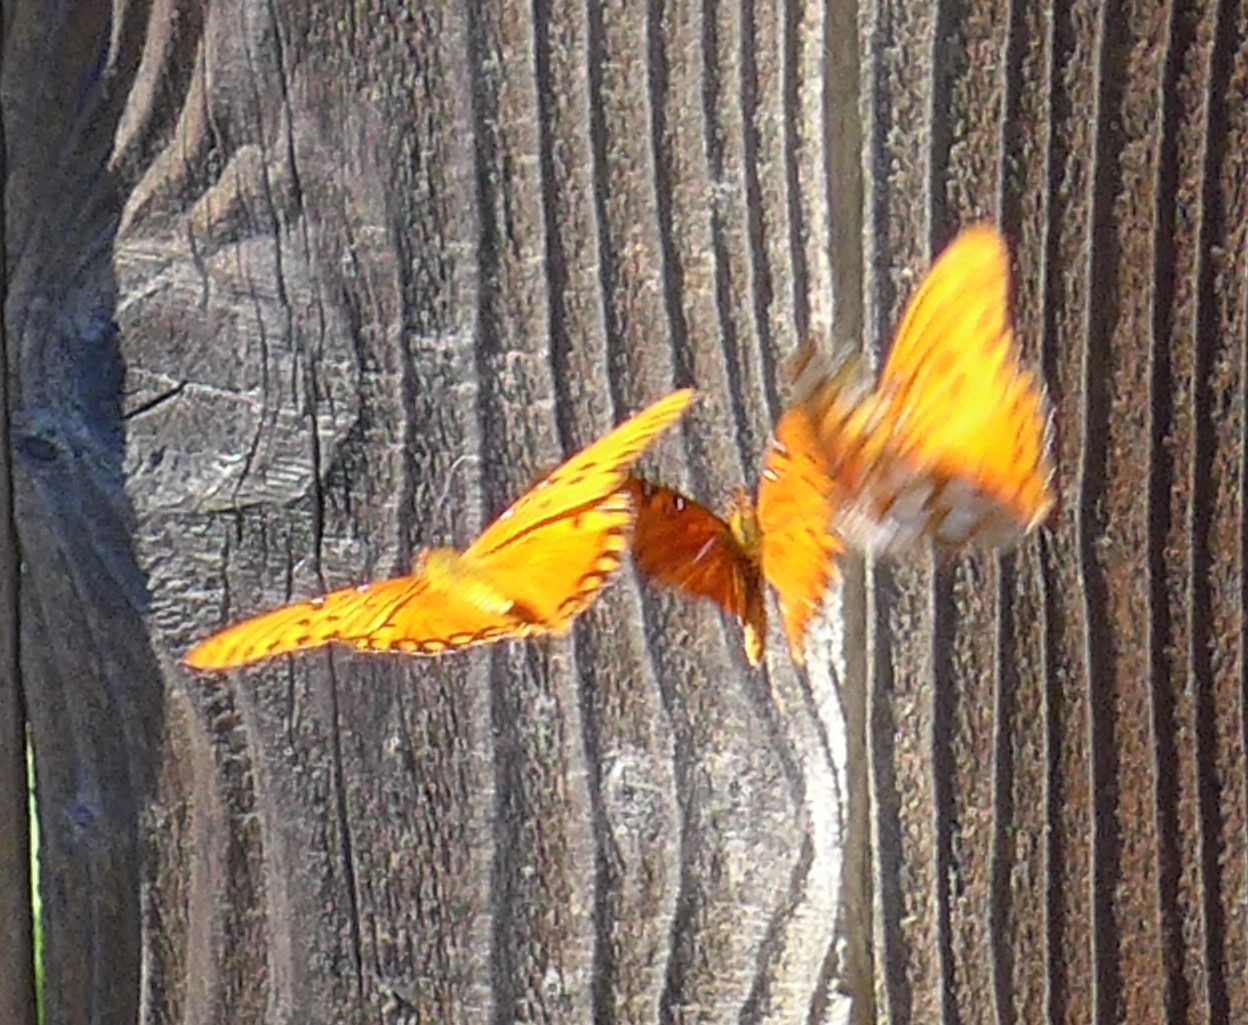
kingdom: Animalia
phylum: Arthropoda
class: Insecta
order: Lepidoptera
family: Nymphalidae
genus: Dione
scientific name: Dione vanillae
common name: Gulf fritillary
